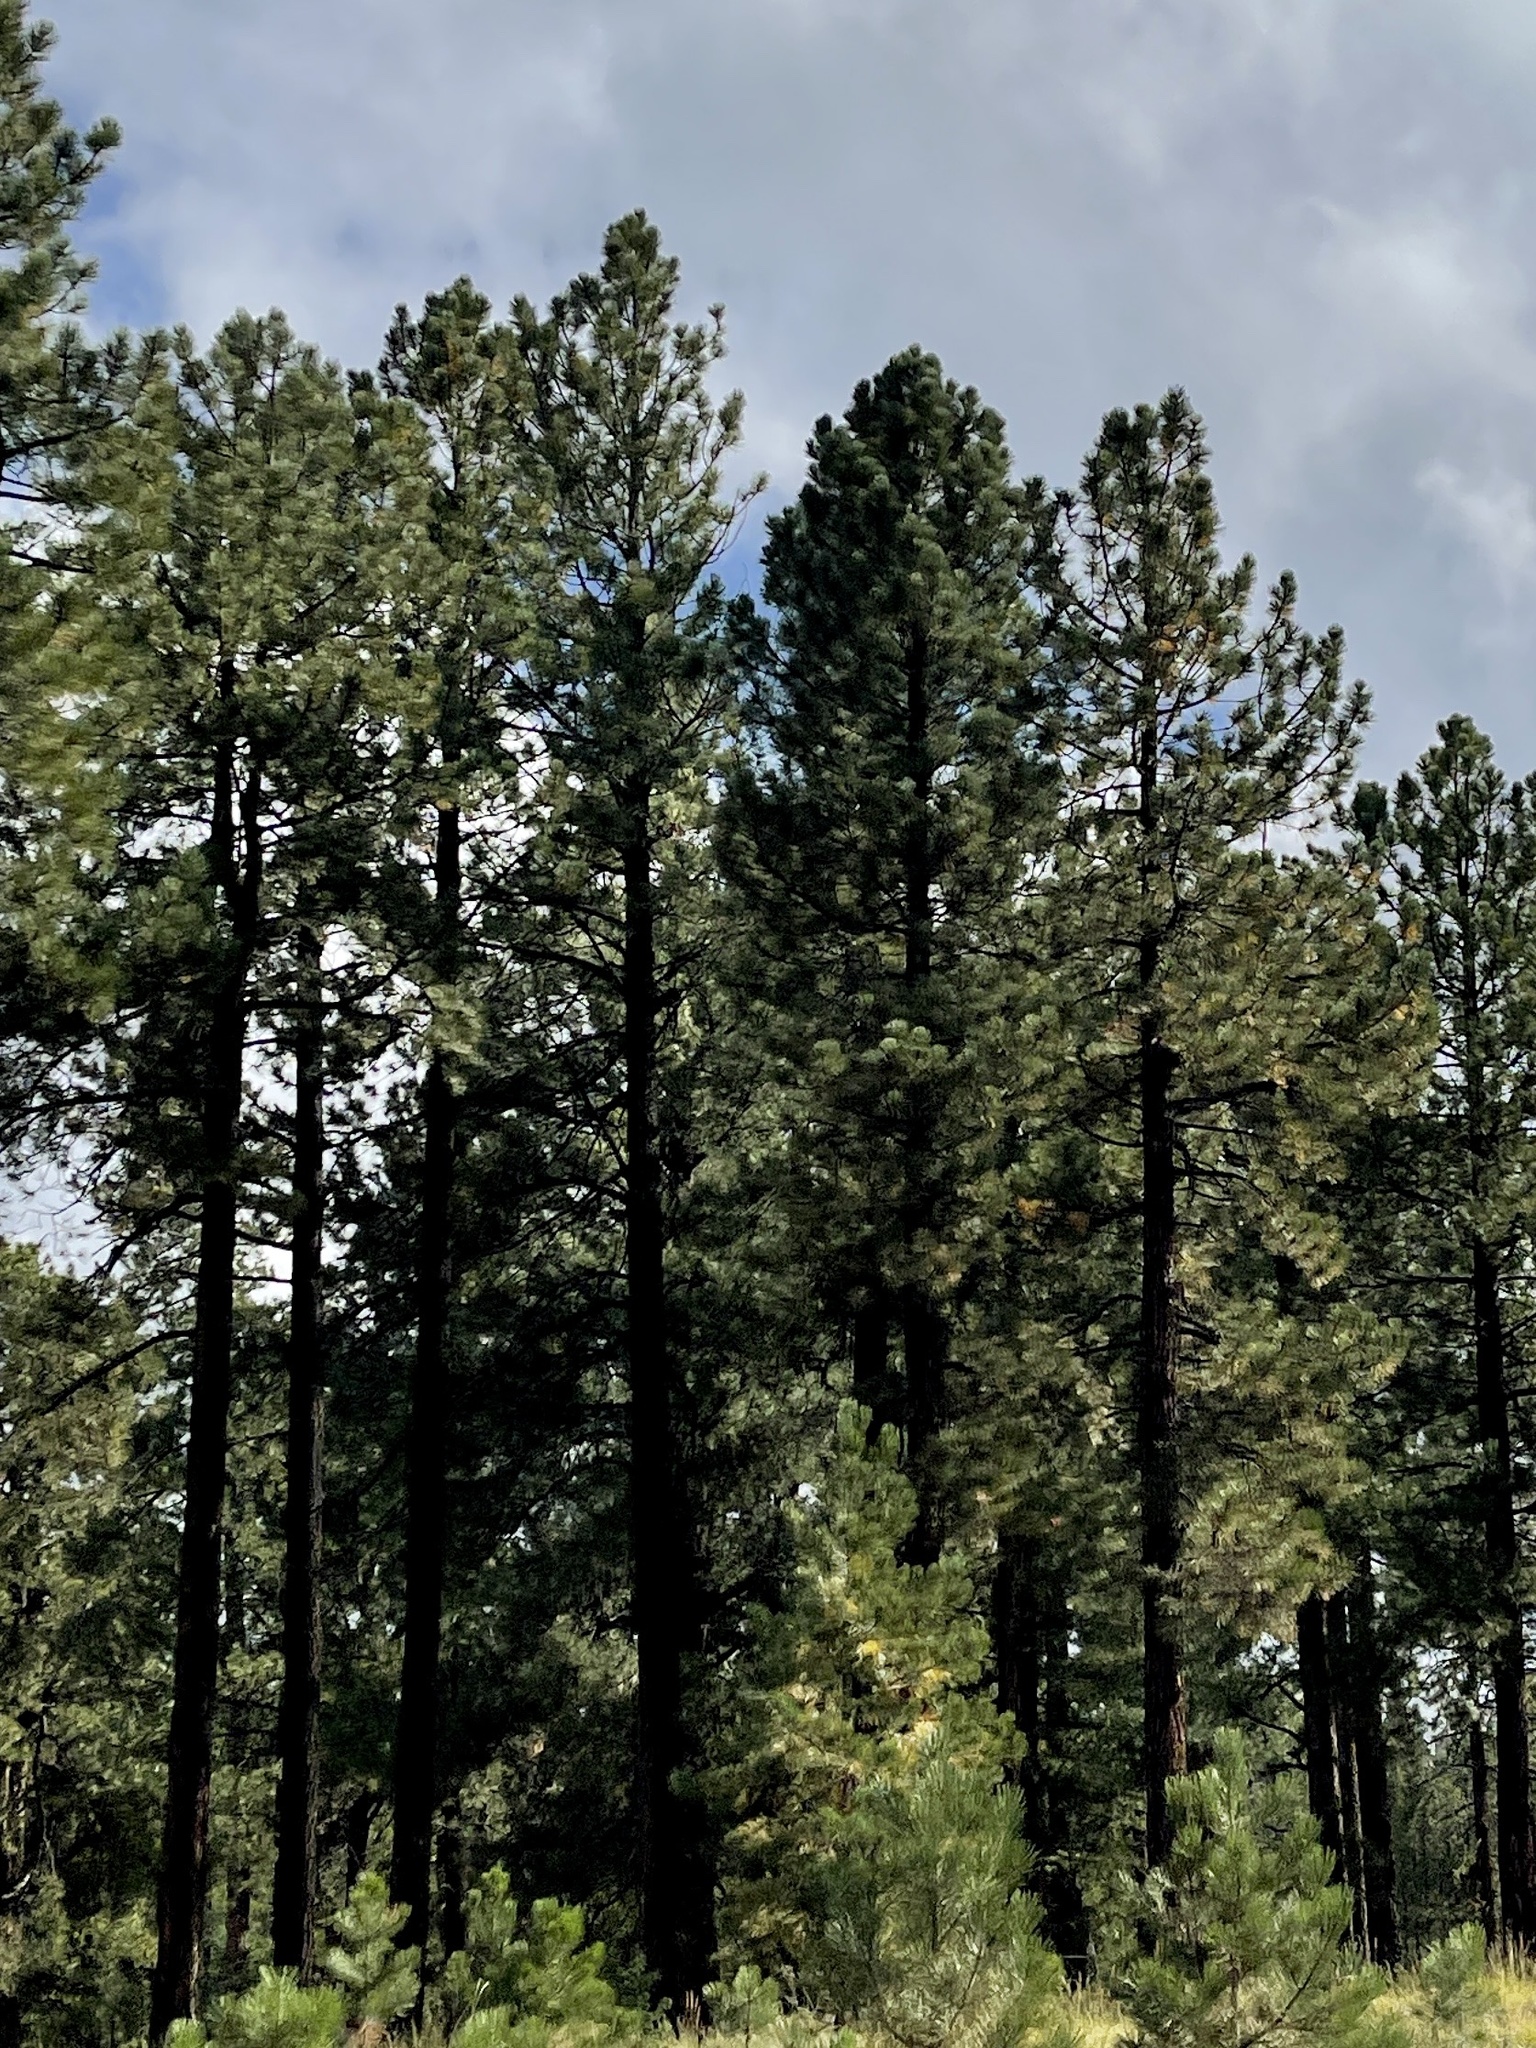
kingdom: Plantae
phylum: Tracheophyta
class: Pinopsida
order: Pinales
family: Pinaceae
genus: Pinus
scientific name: Pinus ponderosa
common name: Western yellow-pine
